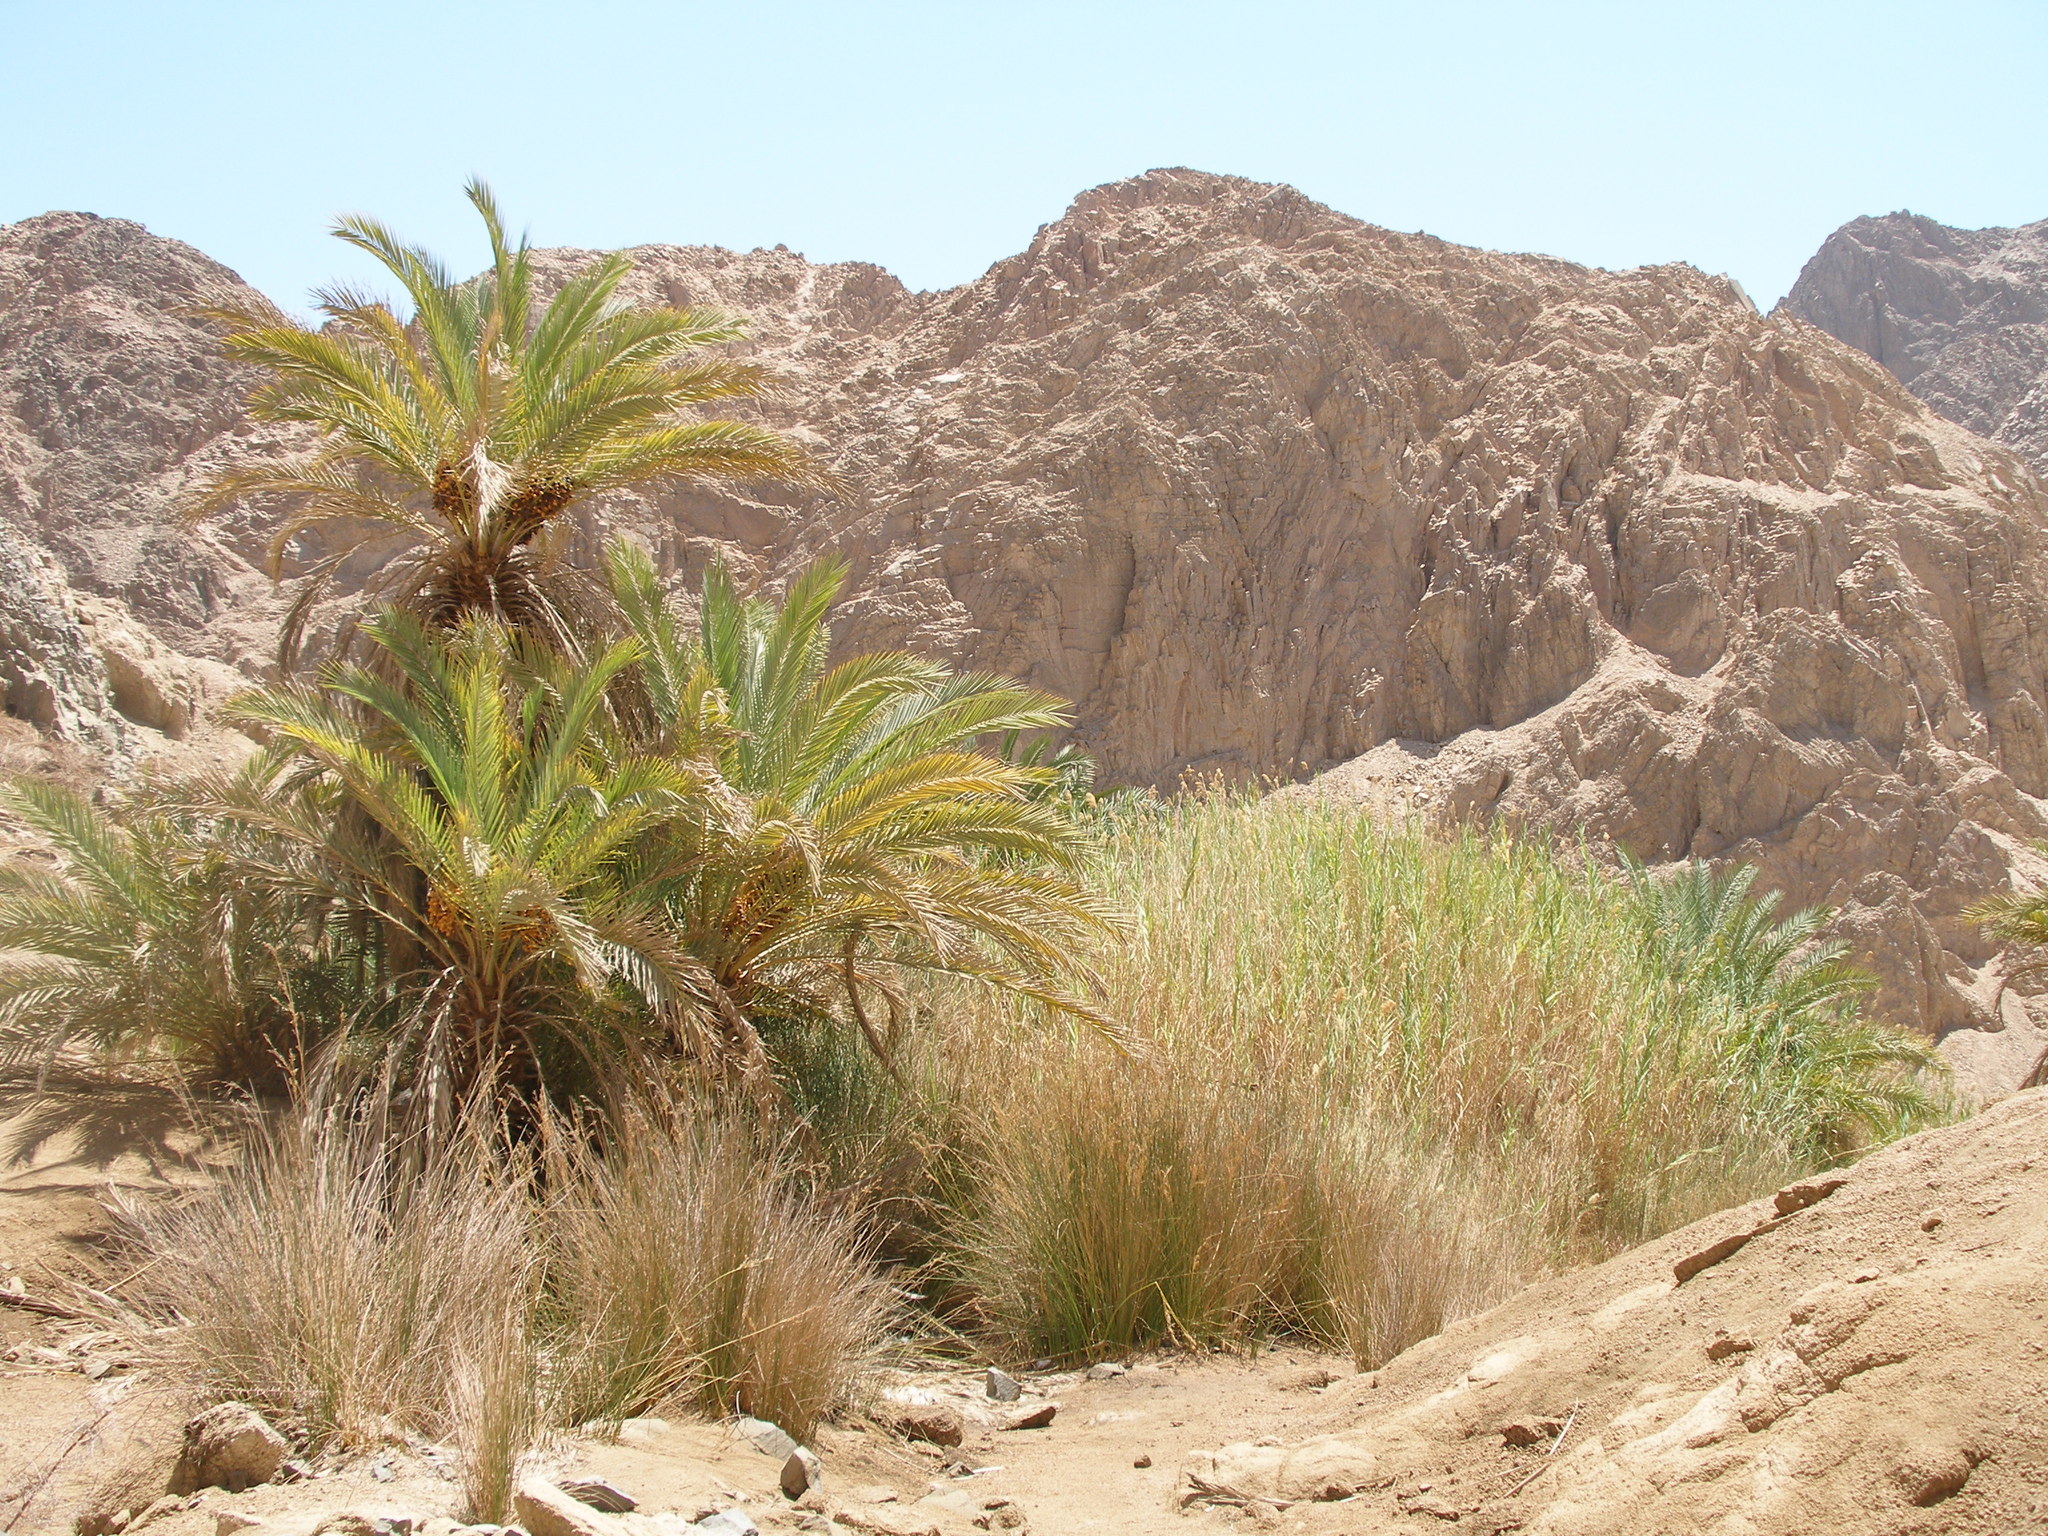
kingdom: Plantae
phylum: Tracheophyta
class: Liliopsida
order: Arecales
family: Arecaceae
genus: Phoenix
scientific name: Phoenix dactylifera
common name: Date palm
